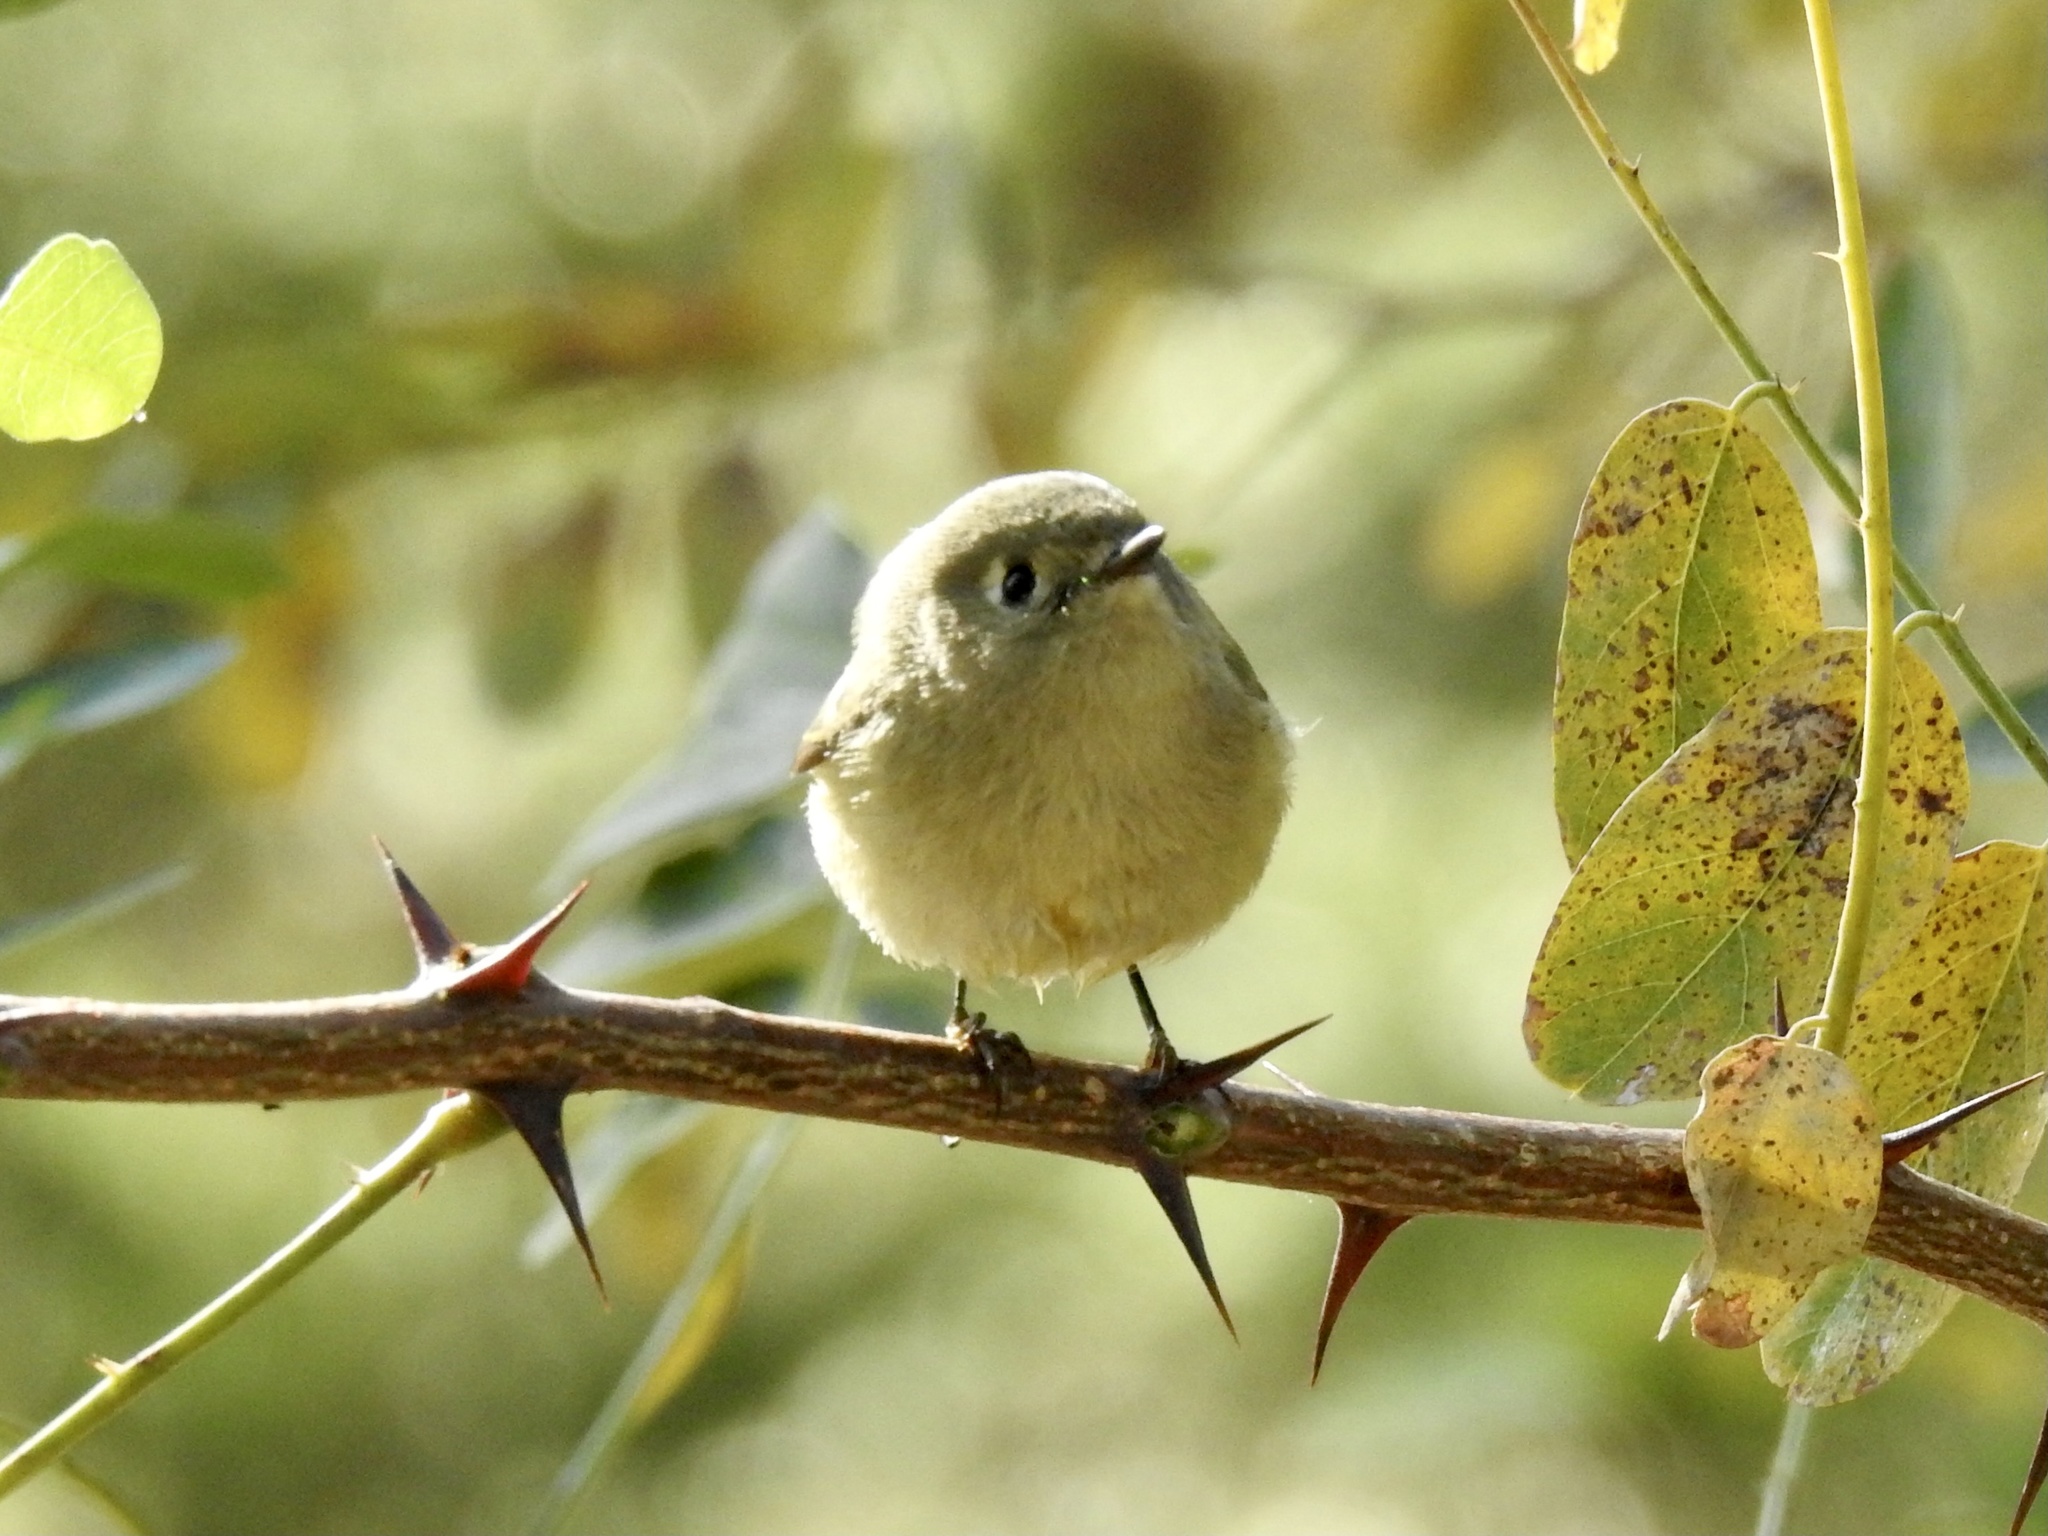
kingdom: Animalia
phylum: Chordata
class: Aves
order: Passeriformes
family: Regulidae
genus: Regulus
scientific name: Regulus calendula
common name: Ruby-crowned kinglet
